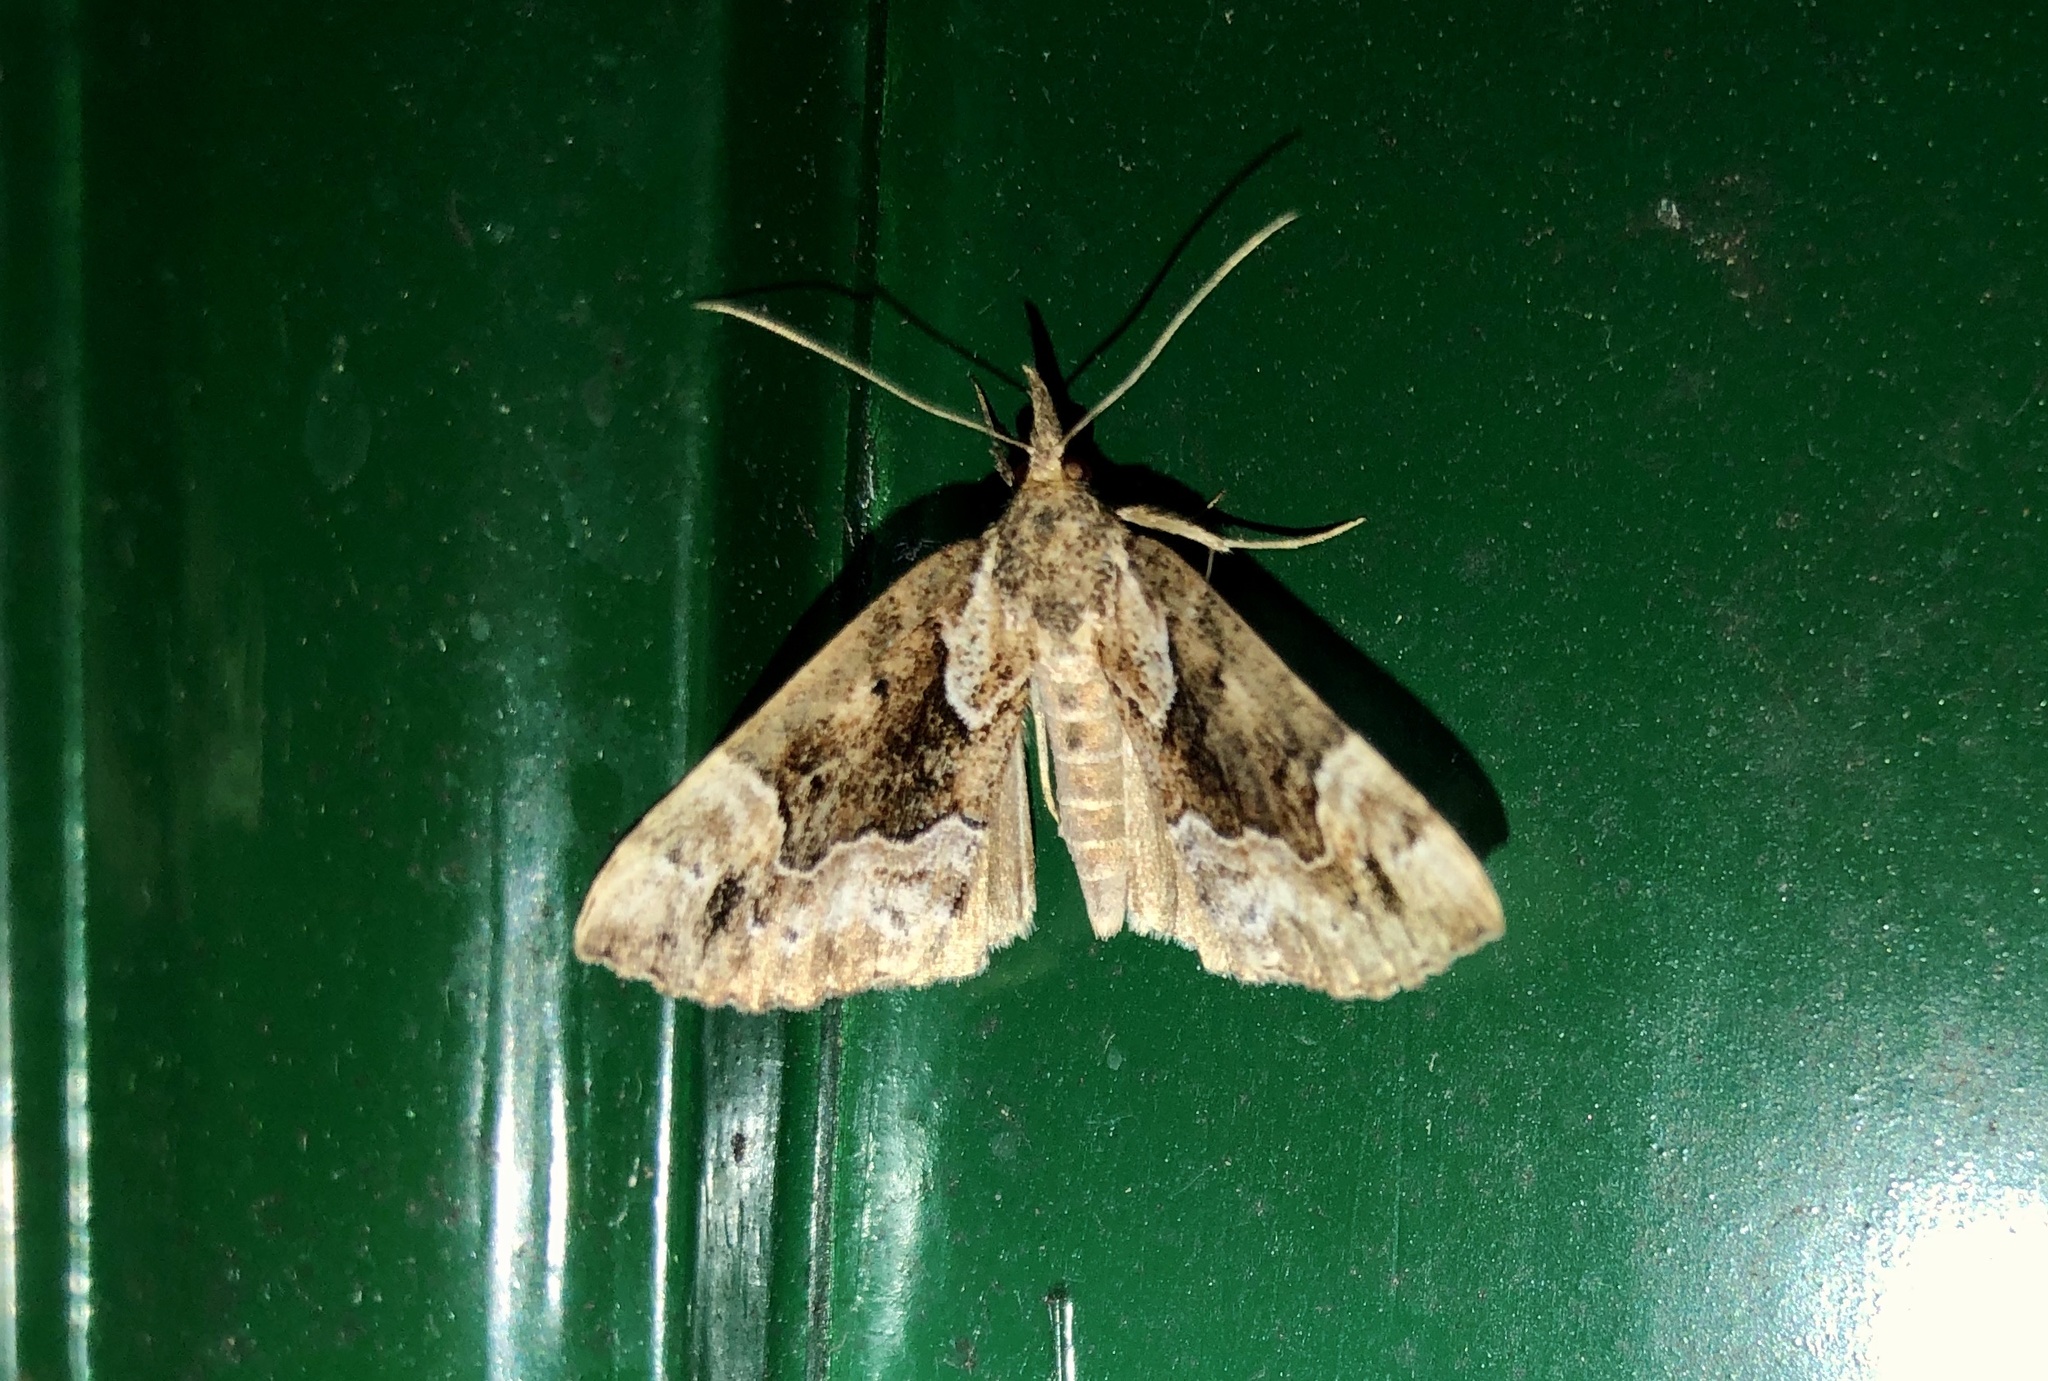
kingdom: Animalia
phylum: Arthropoda
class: Insecta
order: Lepidoptera
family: Erebidae
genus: Hypena
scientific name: Hypena palparia
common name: Mottled bomolocha moth
